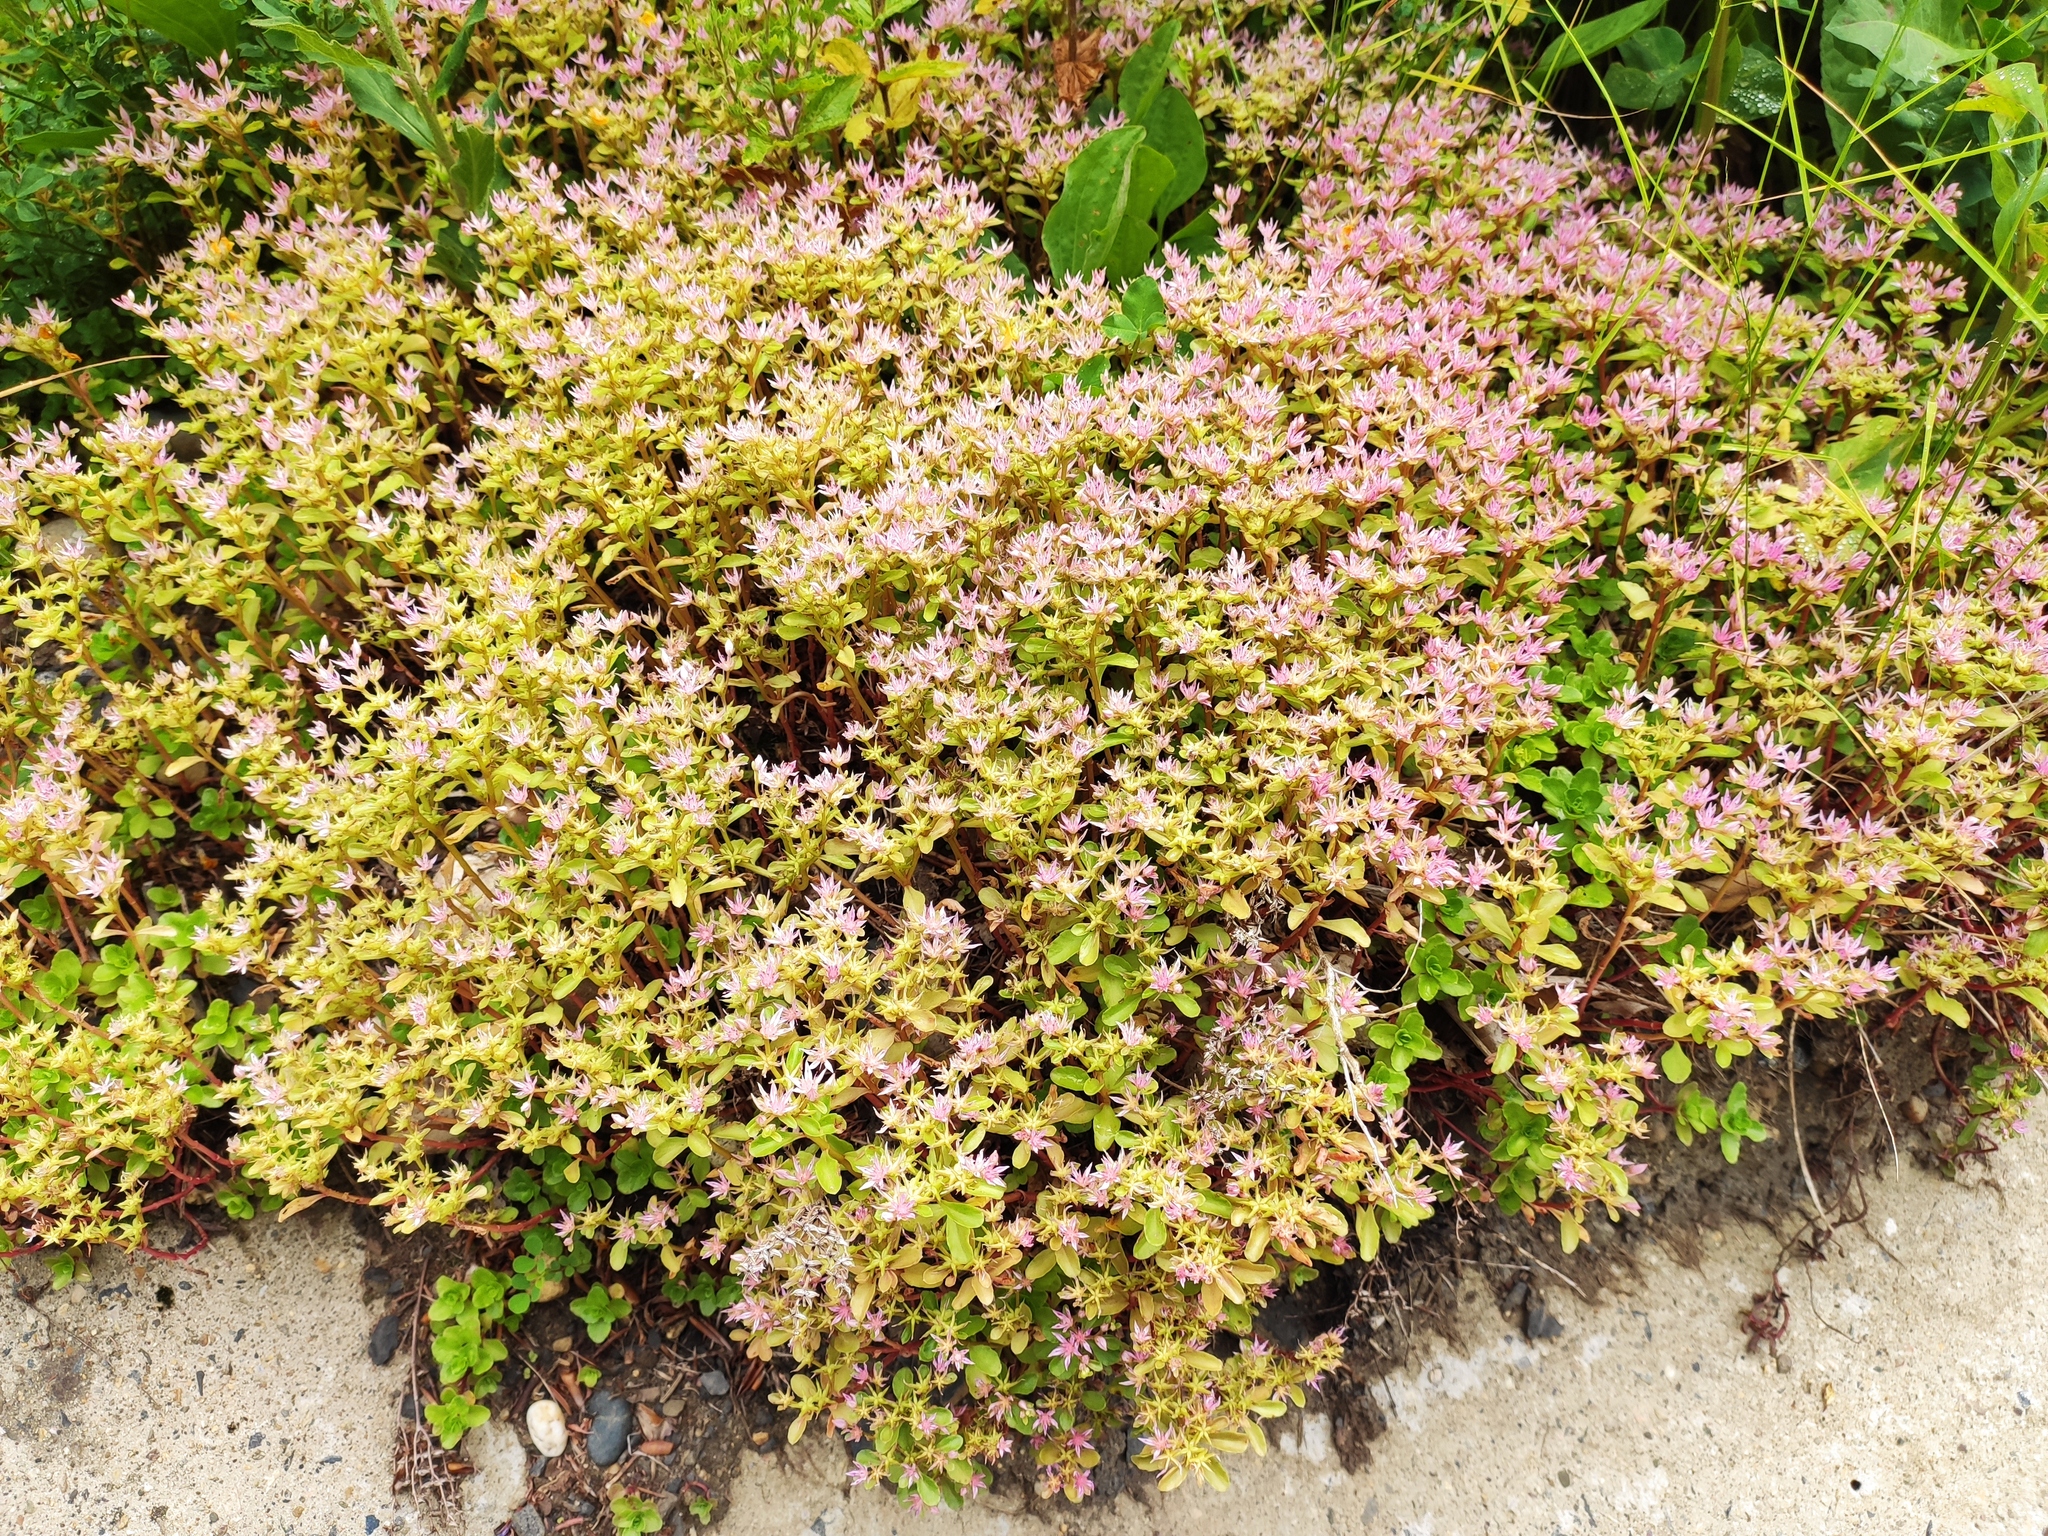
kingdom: Plantae
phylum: Tracheophyta
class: Magnoliopsida
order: Saxifragales
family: Crassulaceae
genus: Phedimus
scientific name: Phedimus stolonifer
